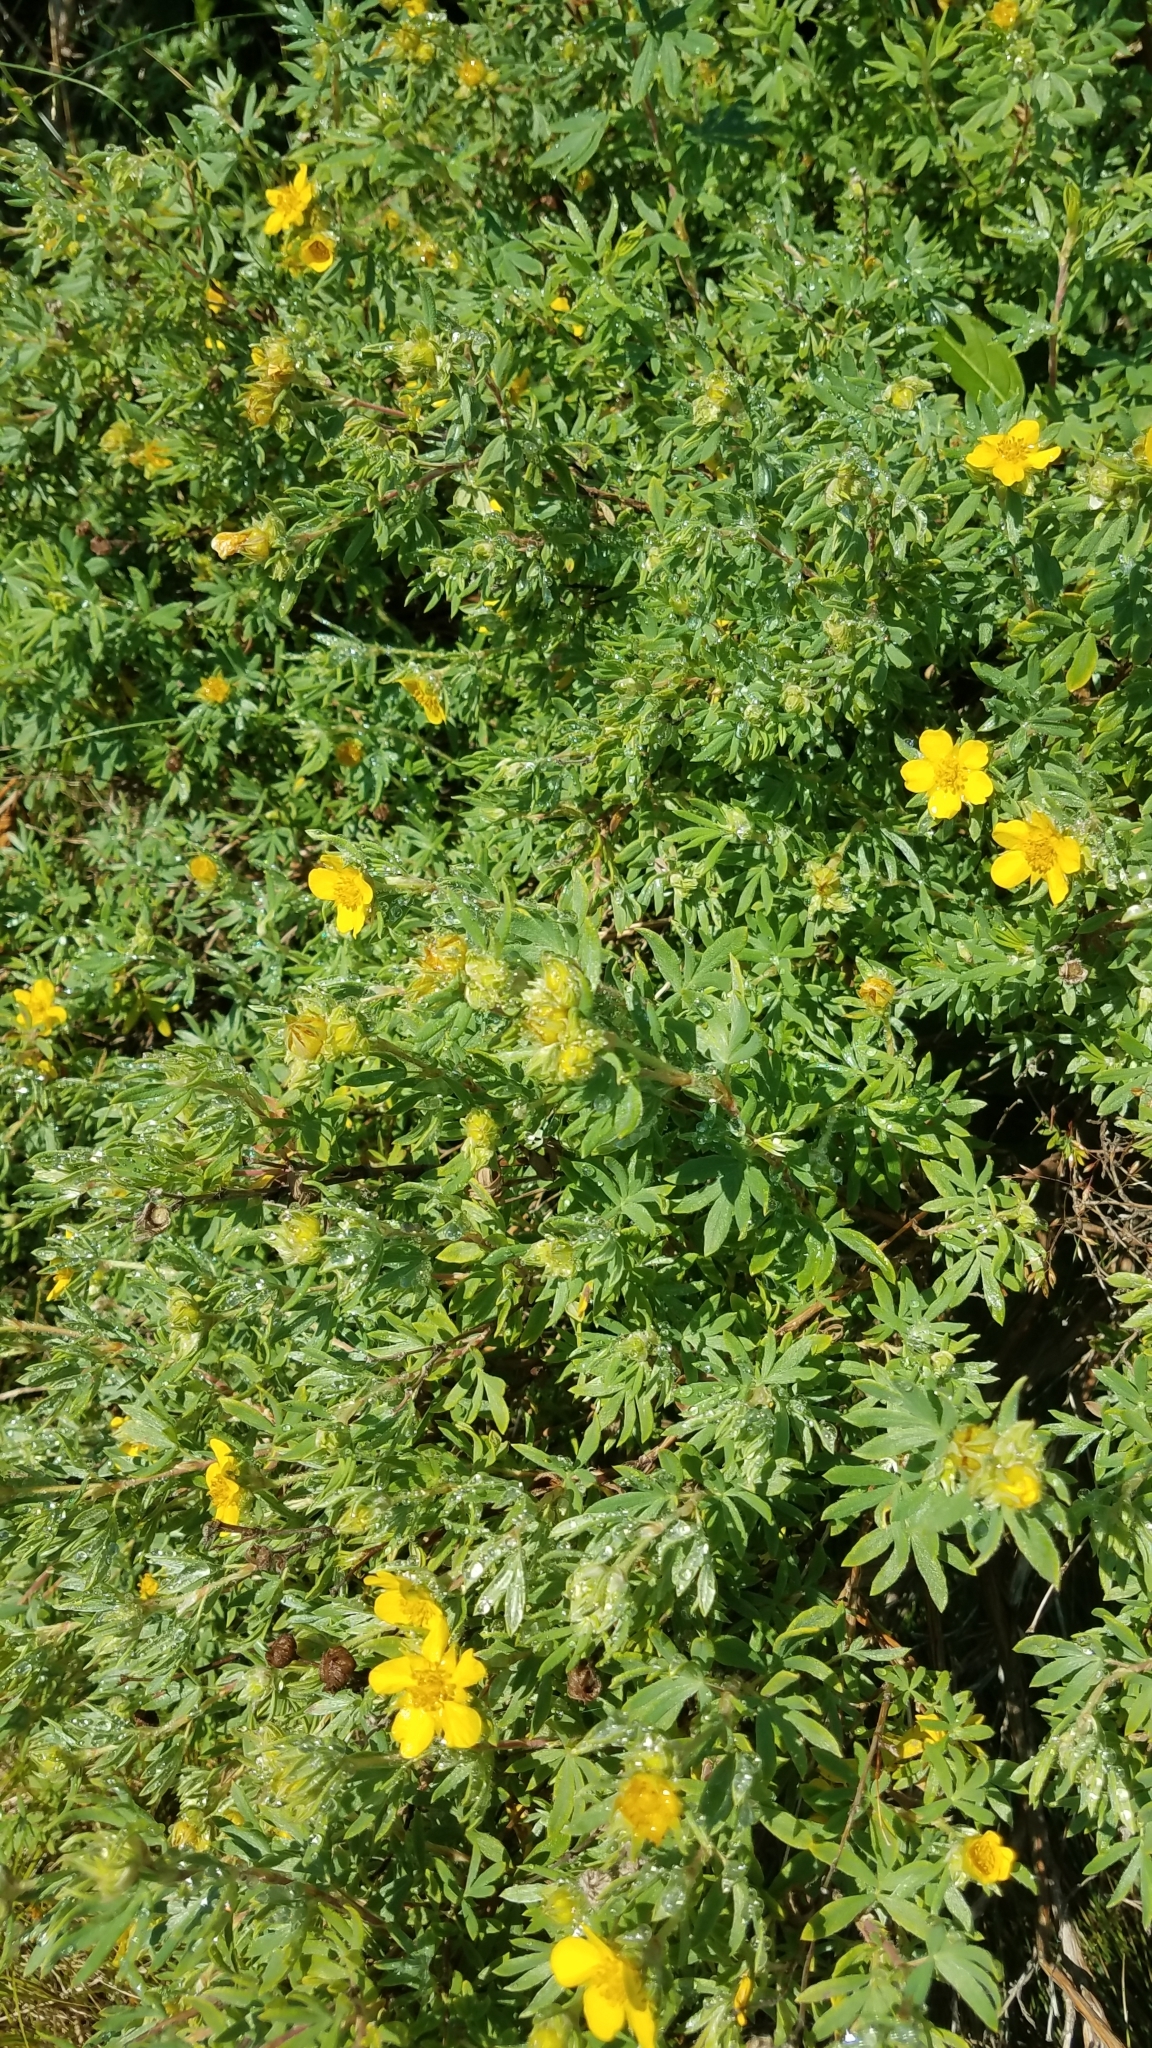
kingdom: Plantae
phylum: Tracheophyta
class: Magnoliopsida
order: Rosales
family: Rosaceae
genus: Dasiphora
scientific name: Dasiphora fruticosa
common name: Shrubby cinquefoil
